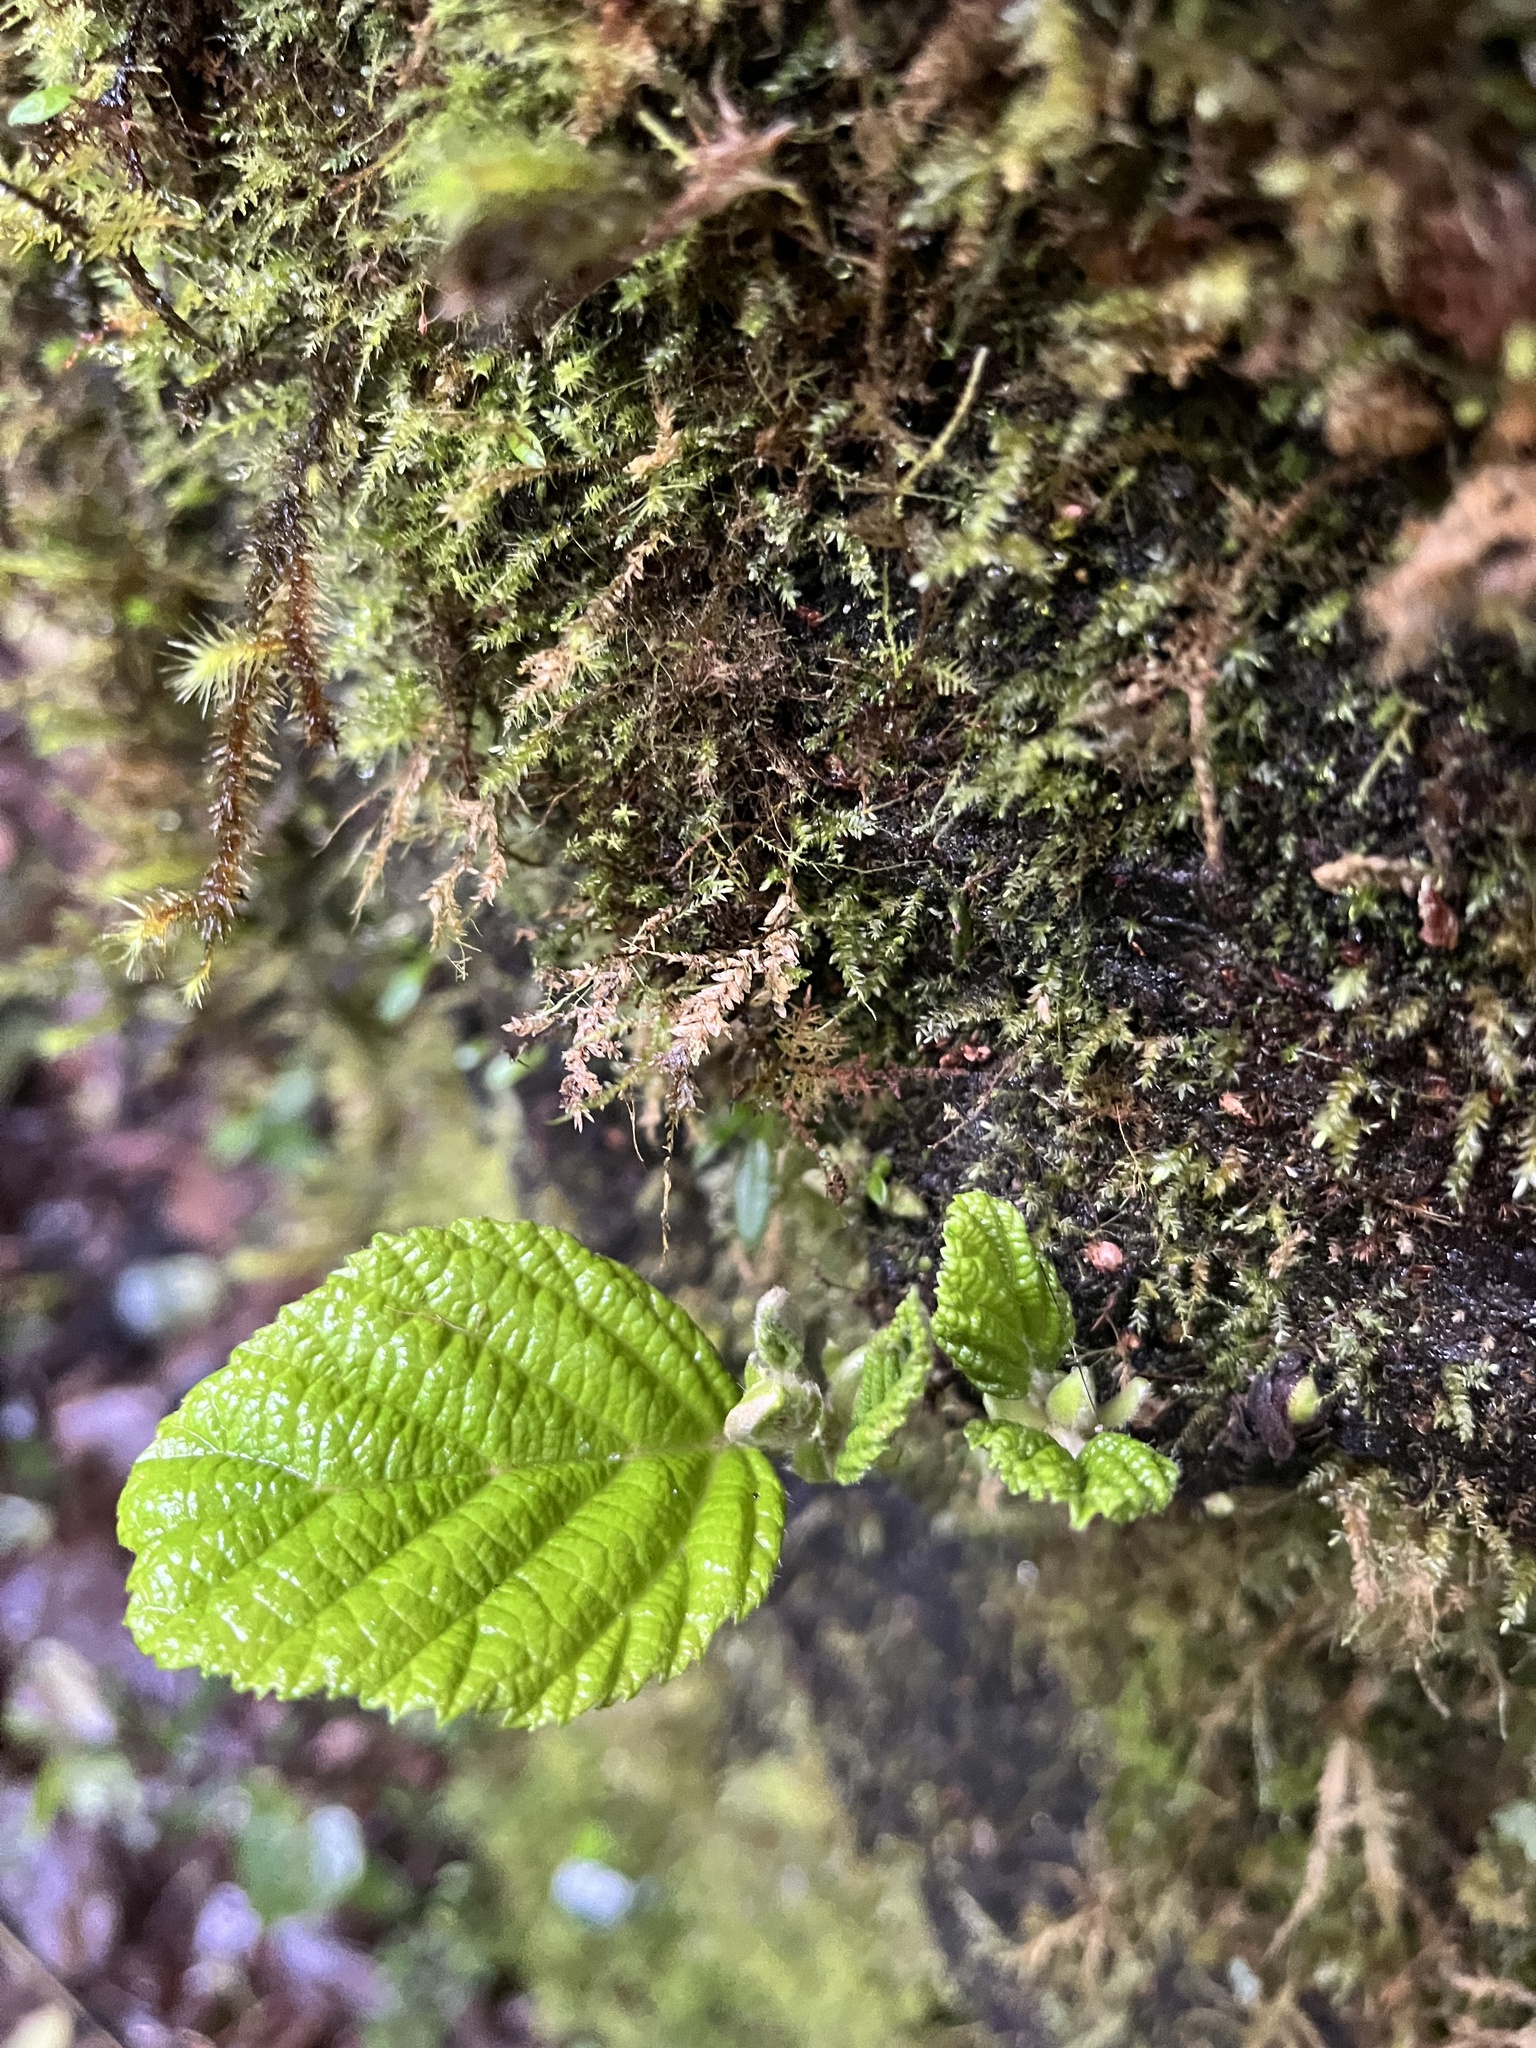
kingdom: Plantae
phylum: Tracheophyta
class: Magnoliopsida
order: Fagales
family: Betulaceae
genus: Alnus
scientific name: Alnus acuminata
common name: Alder
